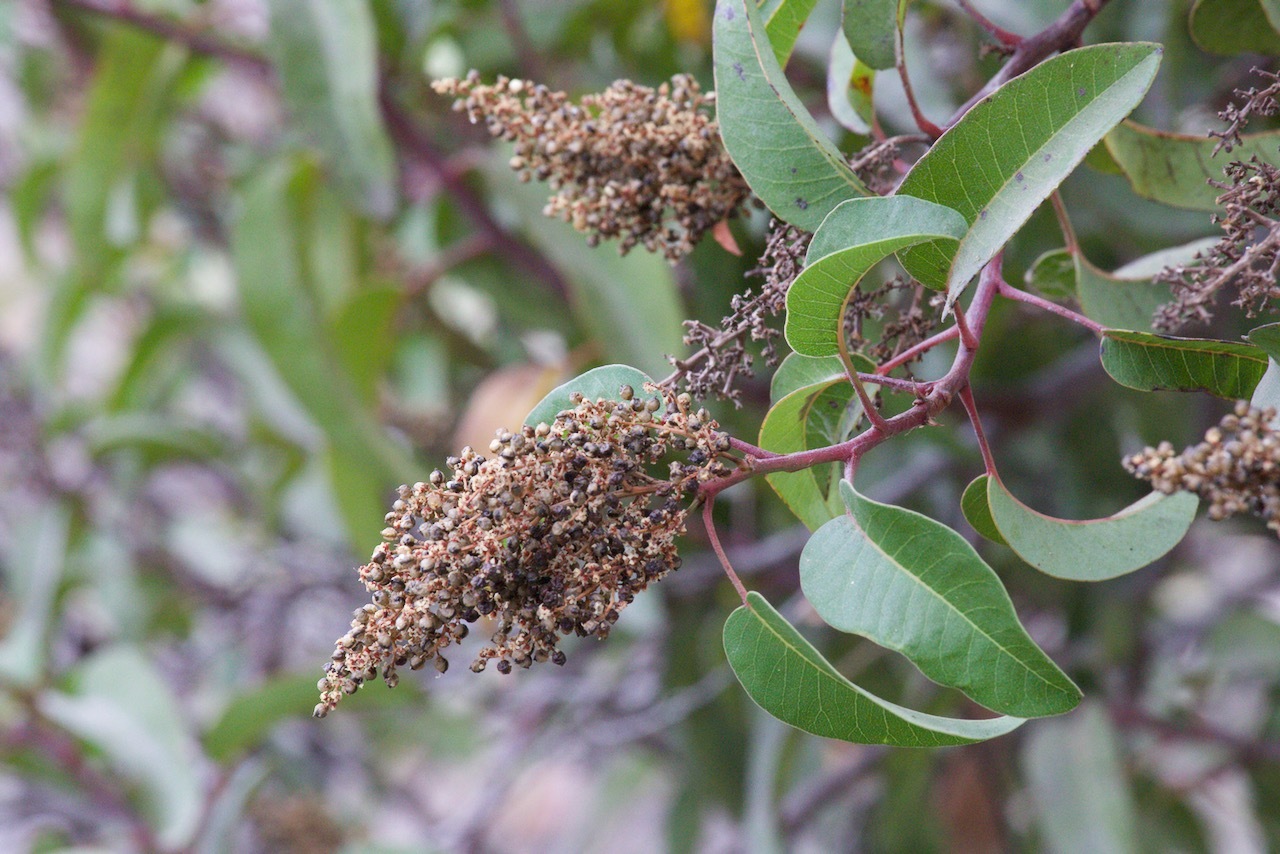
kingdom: Plantae
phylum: Tracheophyta
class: Magnoliopsida
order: Sapindales
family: Anacardiaceae
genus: Malosma
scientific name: Malosma laurina
